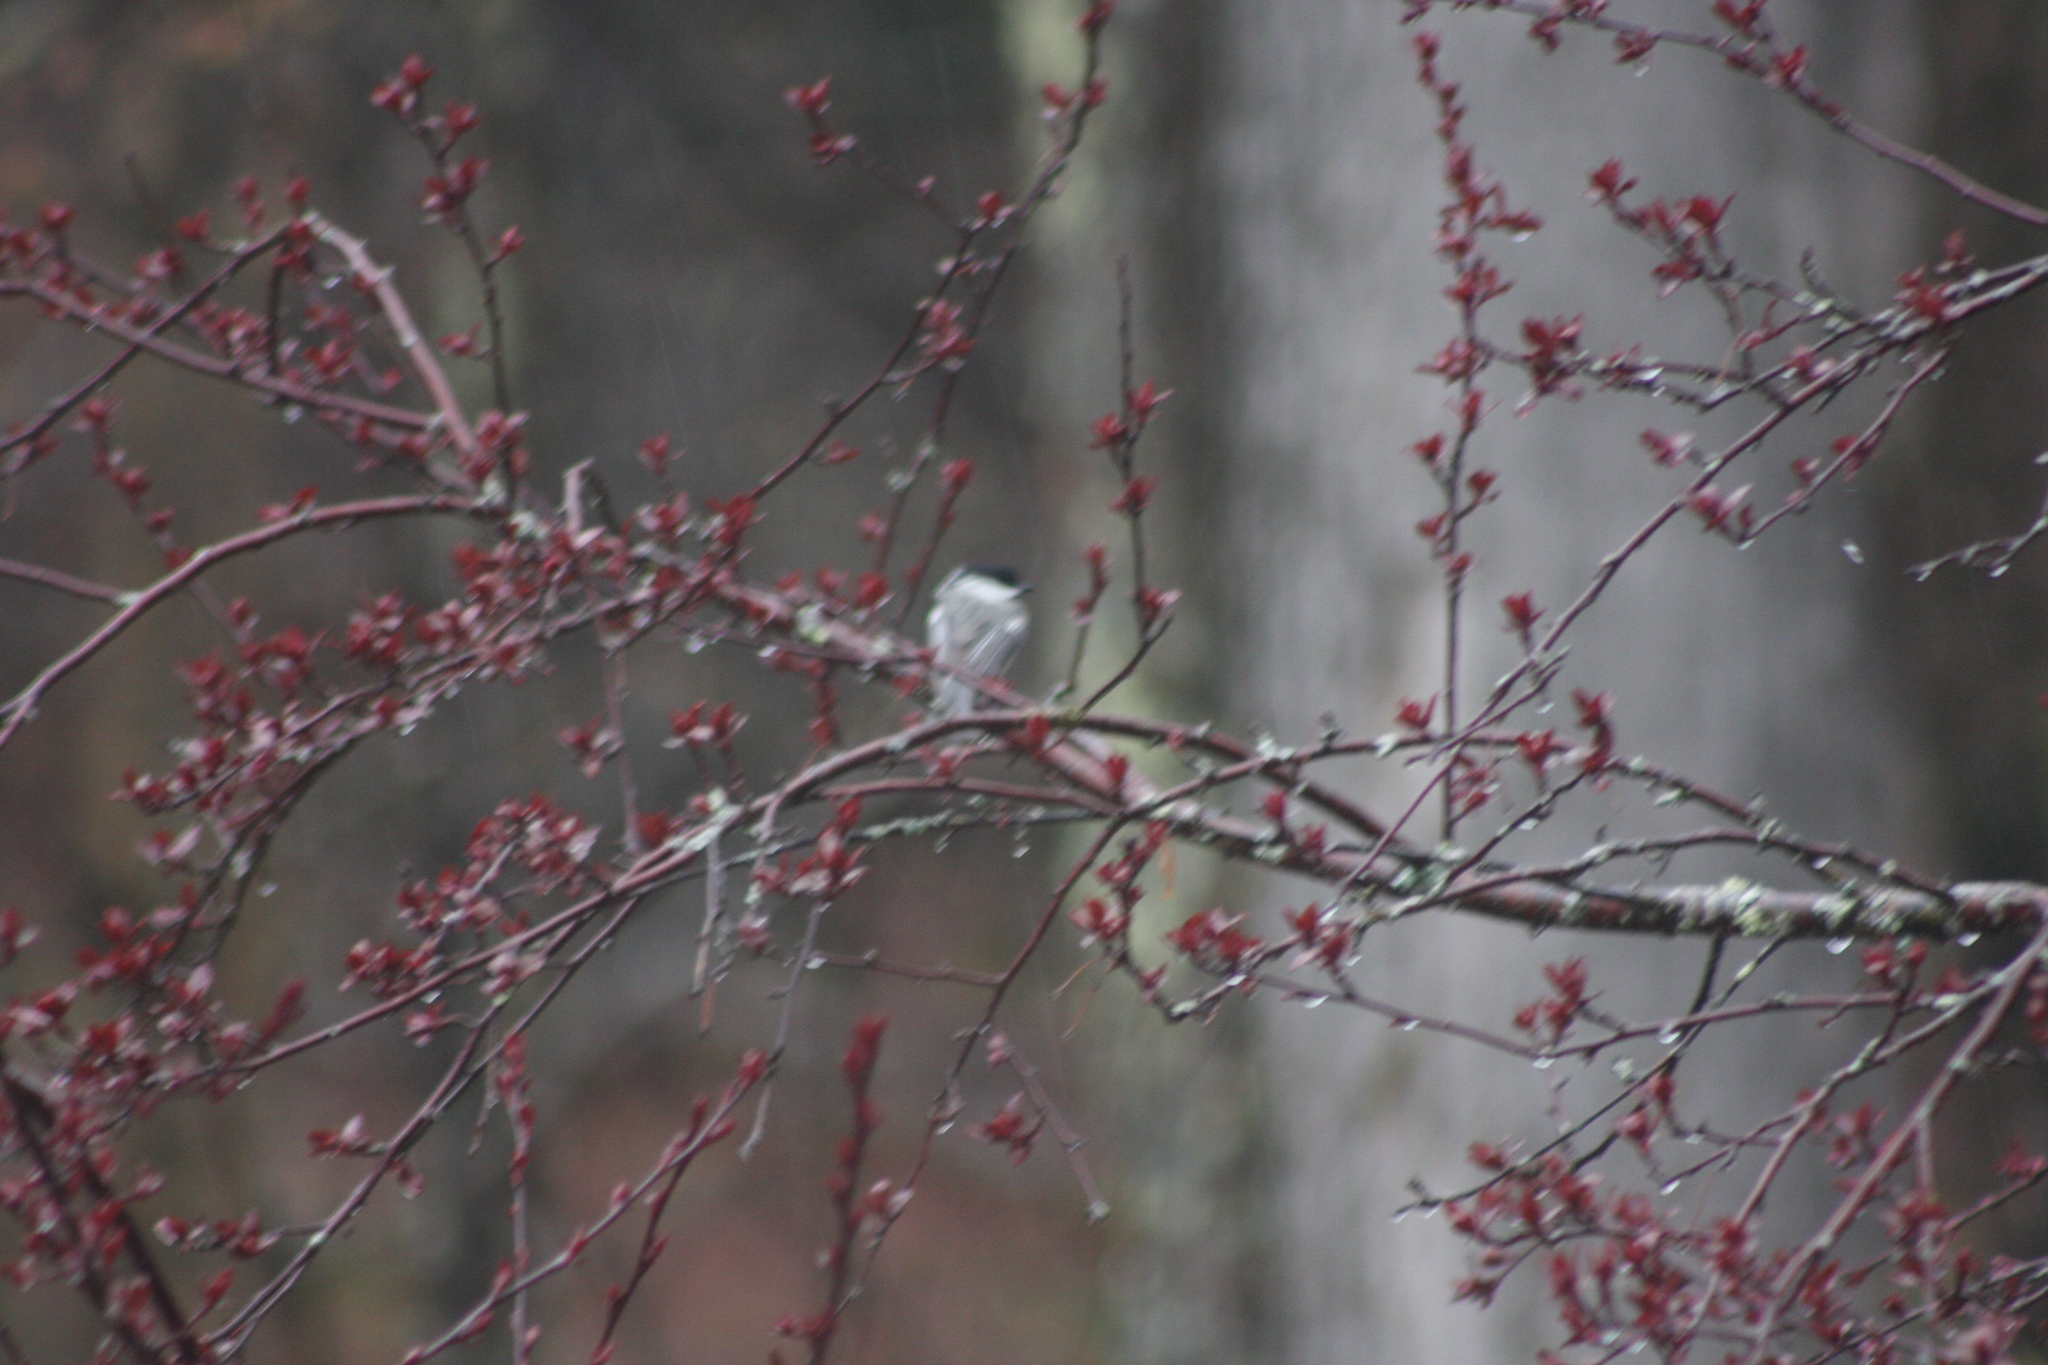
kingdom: Animalia
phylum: Chordata
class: Aves
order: Passeriformes
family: Paridae
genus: Poecile
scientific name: Poecile atricapillus
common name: Black-capped chickadee
